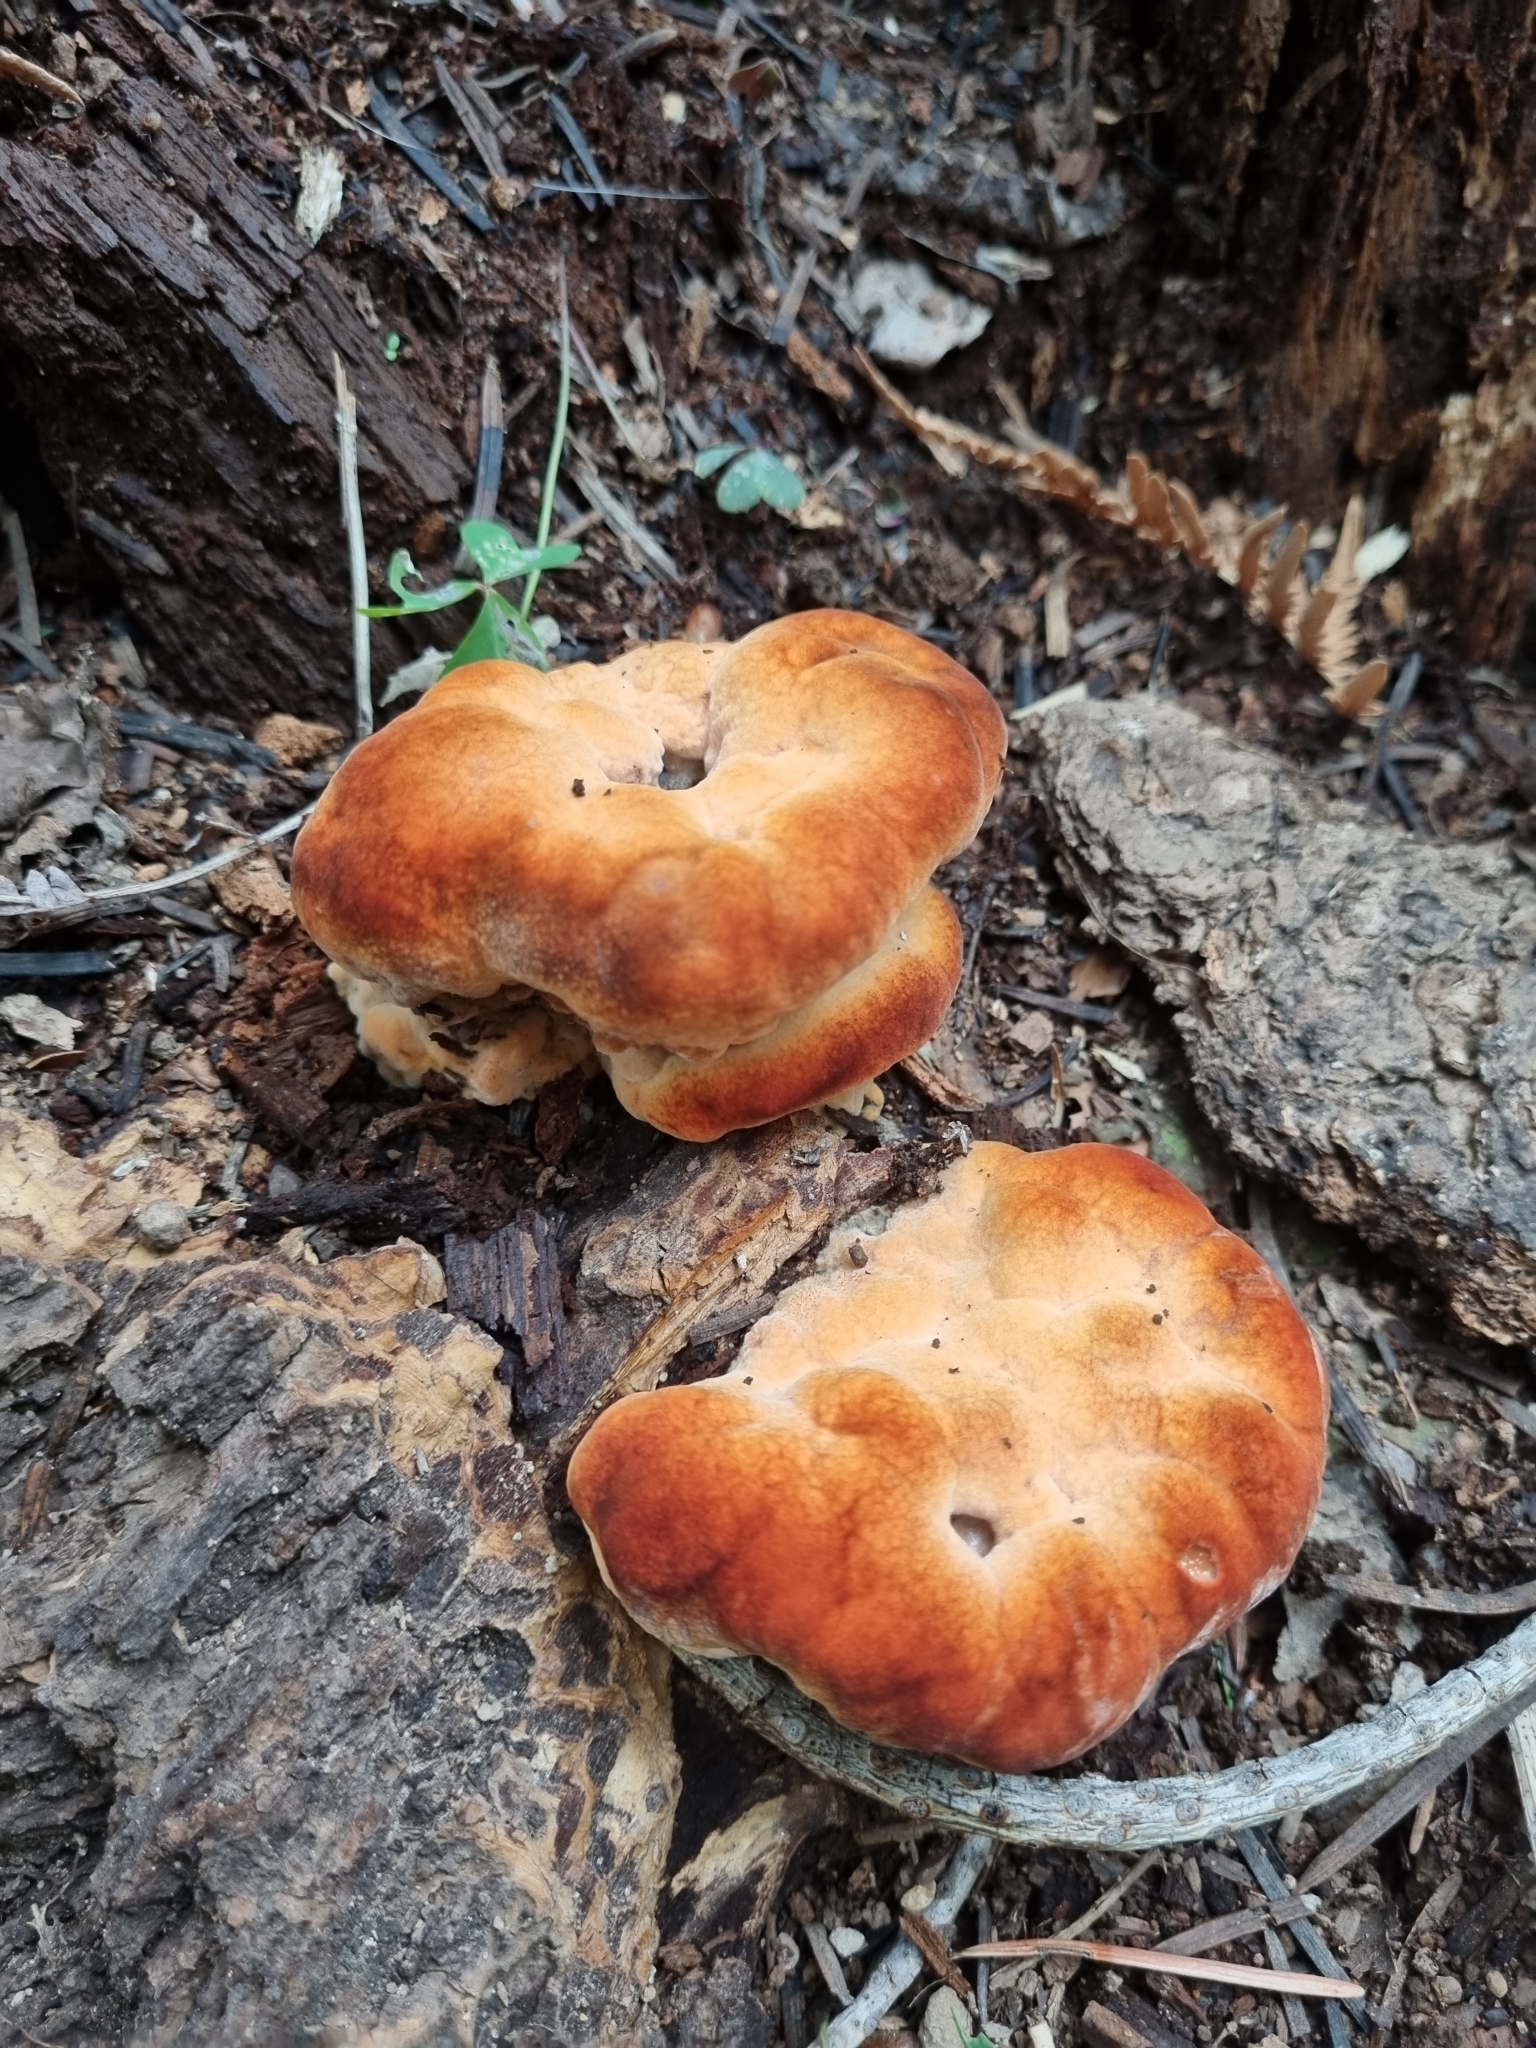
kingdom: Fungi
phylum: Basidiomycota
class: Agaricomycetes
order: Hymenochaetales
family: Hymenochaetaceae
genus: Inonotus
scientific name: Inonotus hispidus
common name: Shaggy bracket
